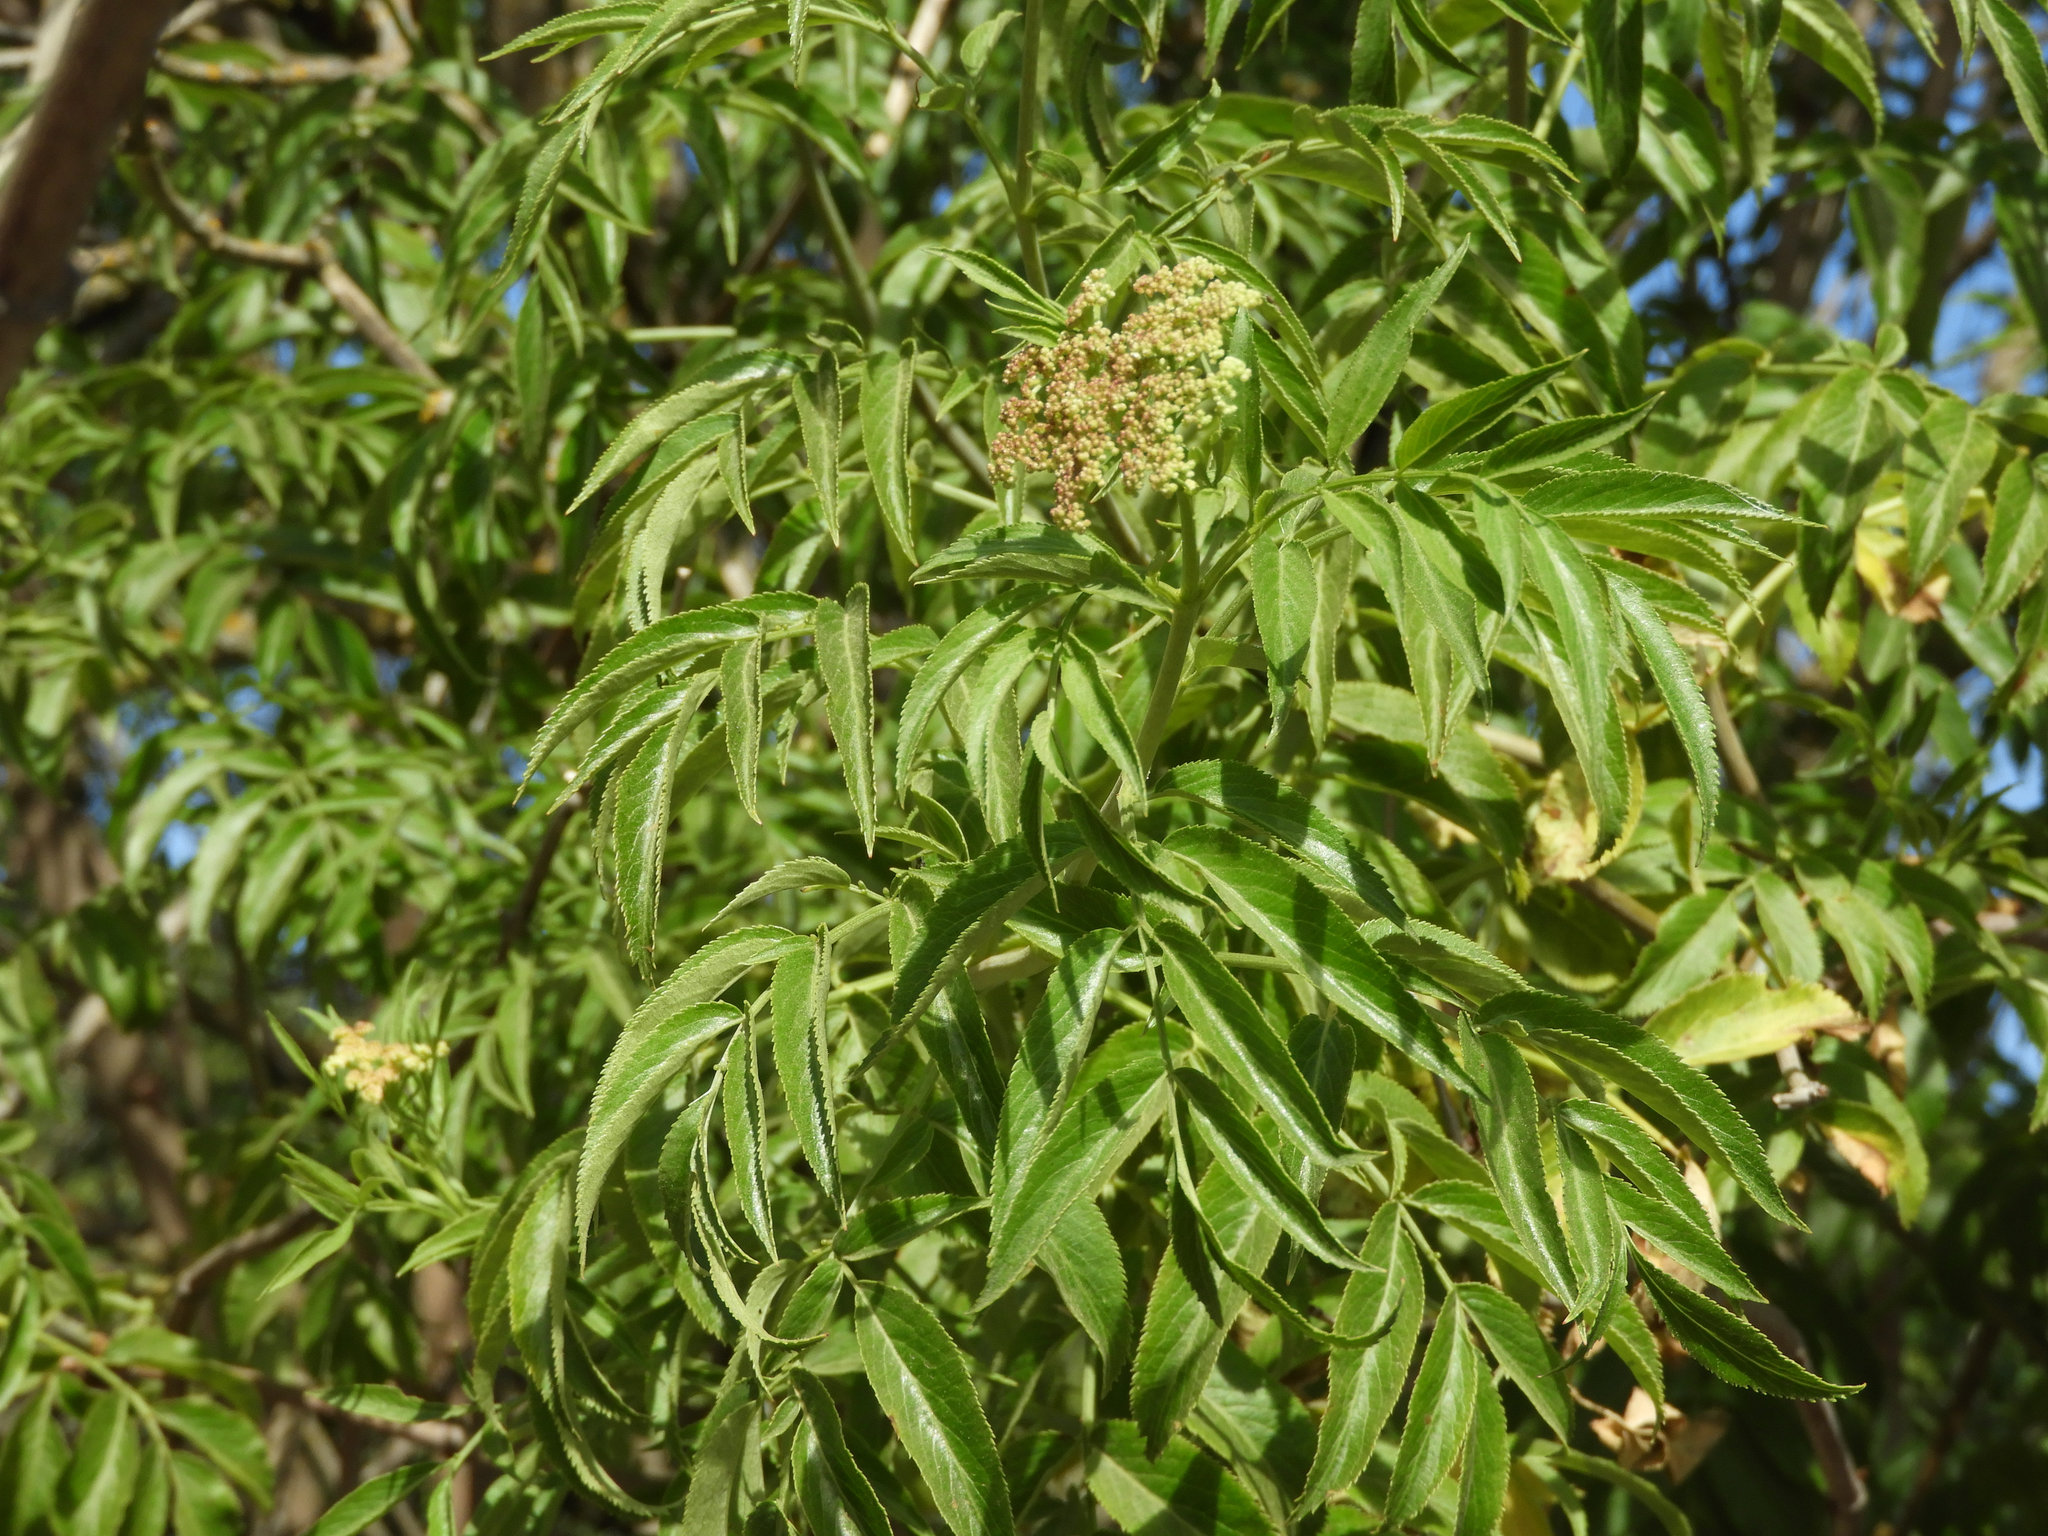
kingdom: Plantae
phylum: Tracheophyta
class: Magnoliopsida
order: Dipsacales
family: Viburnaceae
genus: Sambucus
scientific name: Sambucus cerulea
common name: Blue elder
